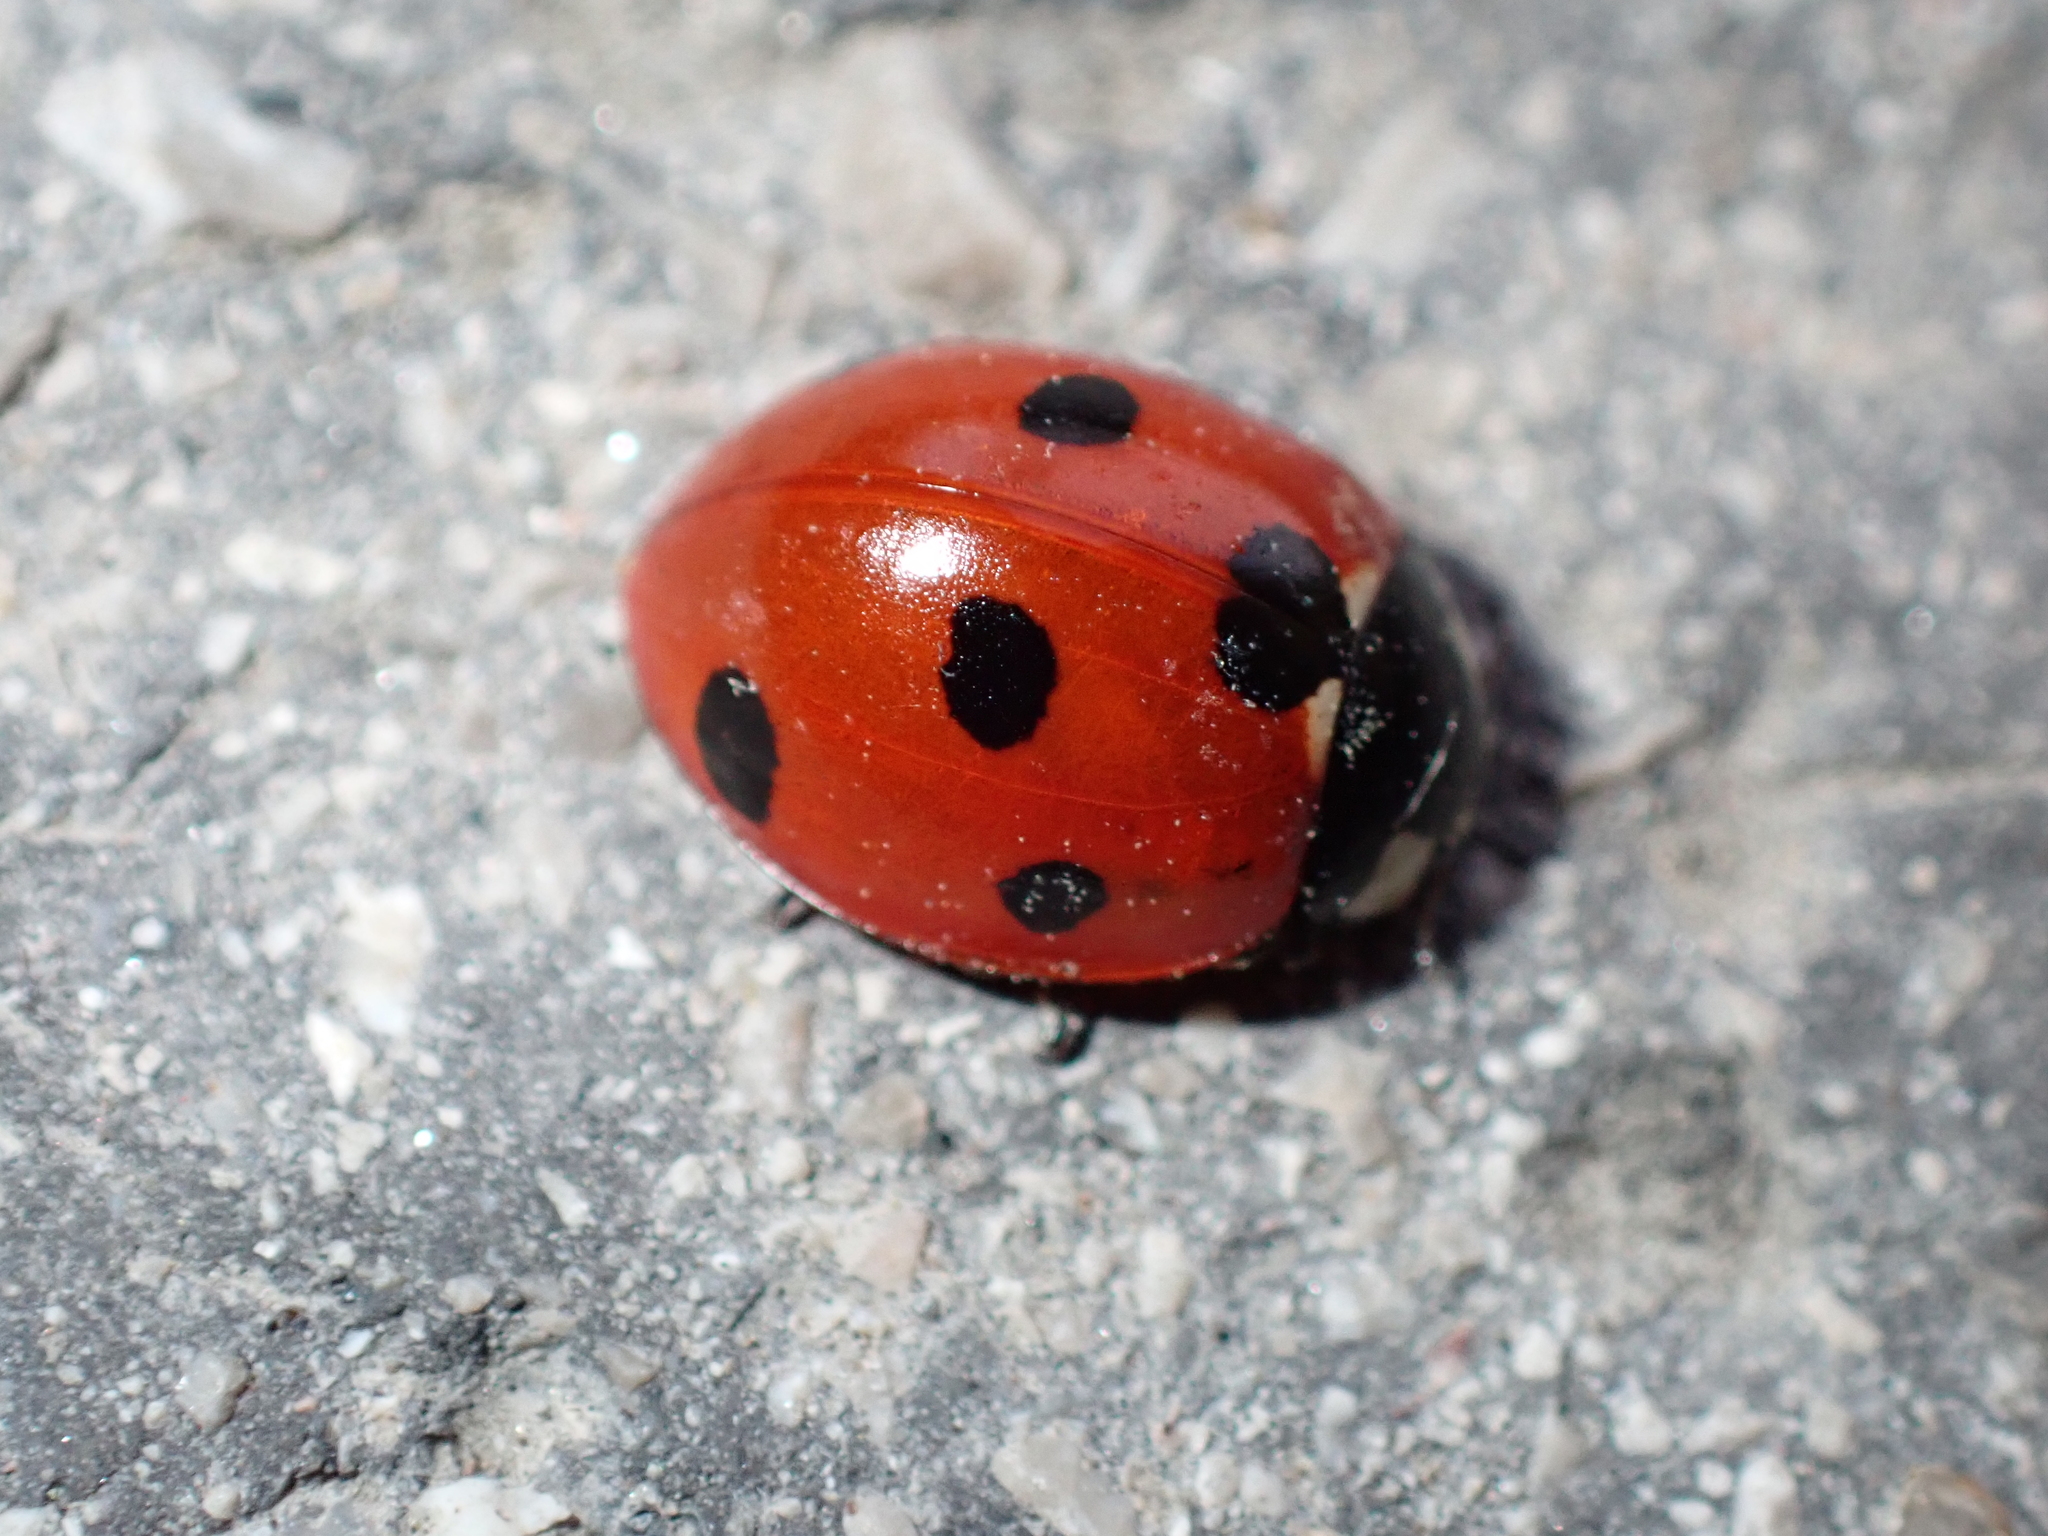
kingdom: Animalia
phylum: Arthropoda
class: Insecta
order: Coleoptera
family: Coccinellidae
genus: Coccinella
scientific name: Coccinella septempunctata
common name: Sevenspotted lady beetle
